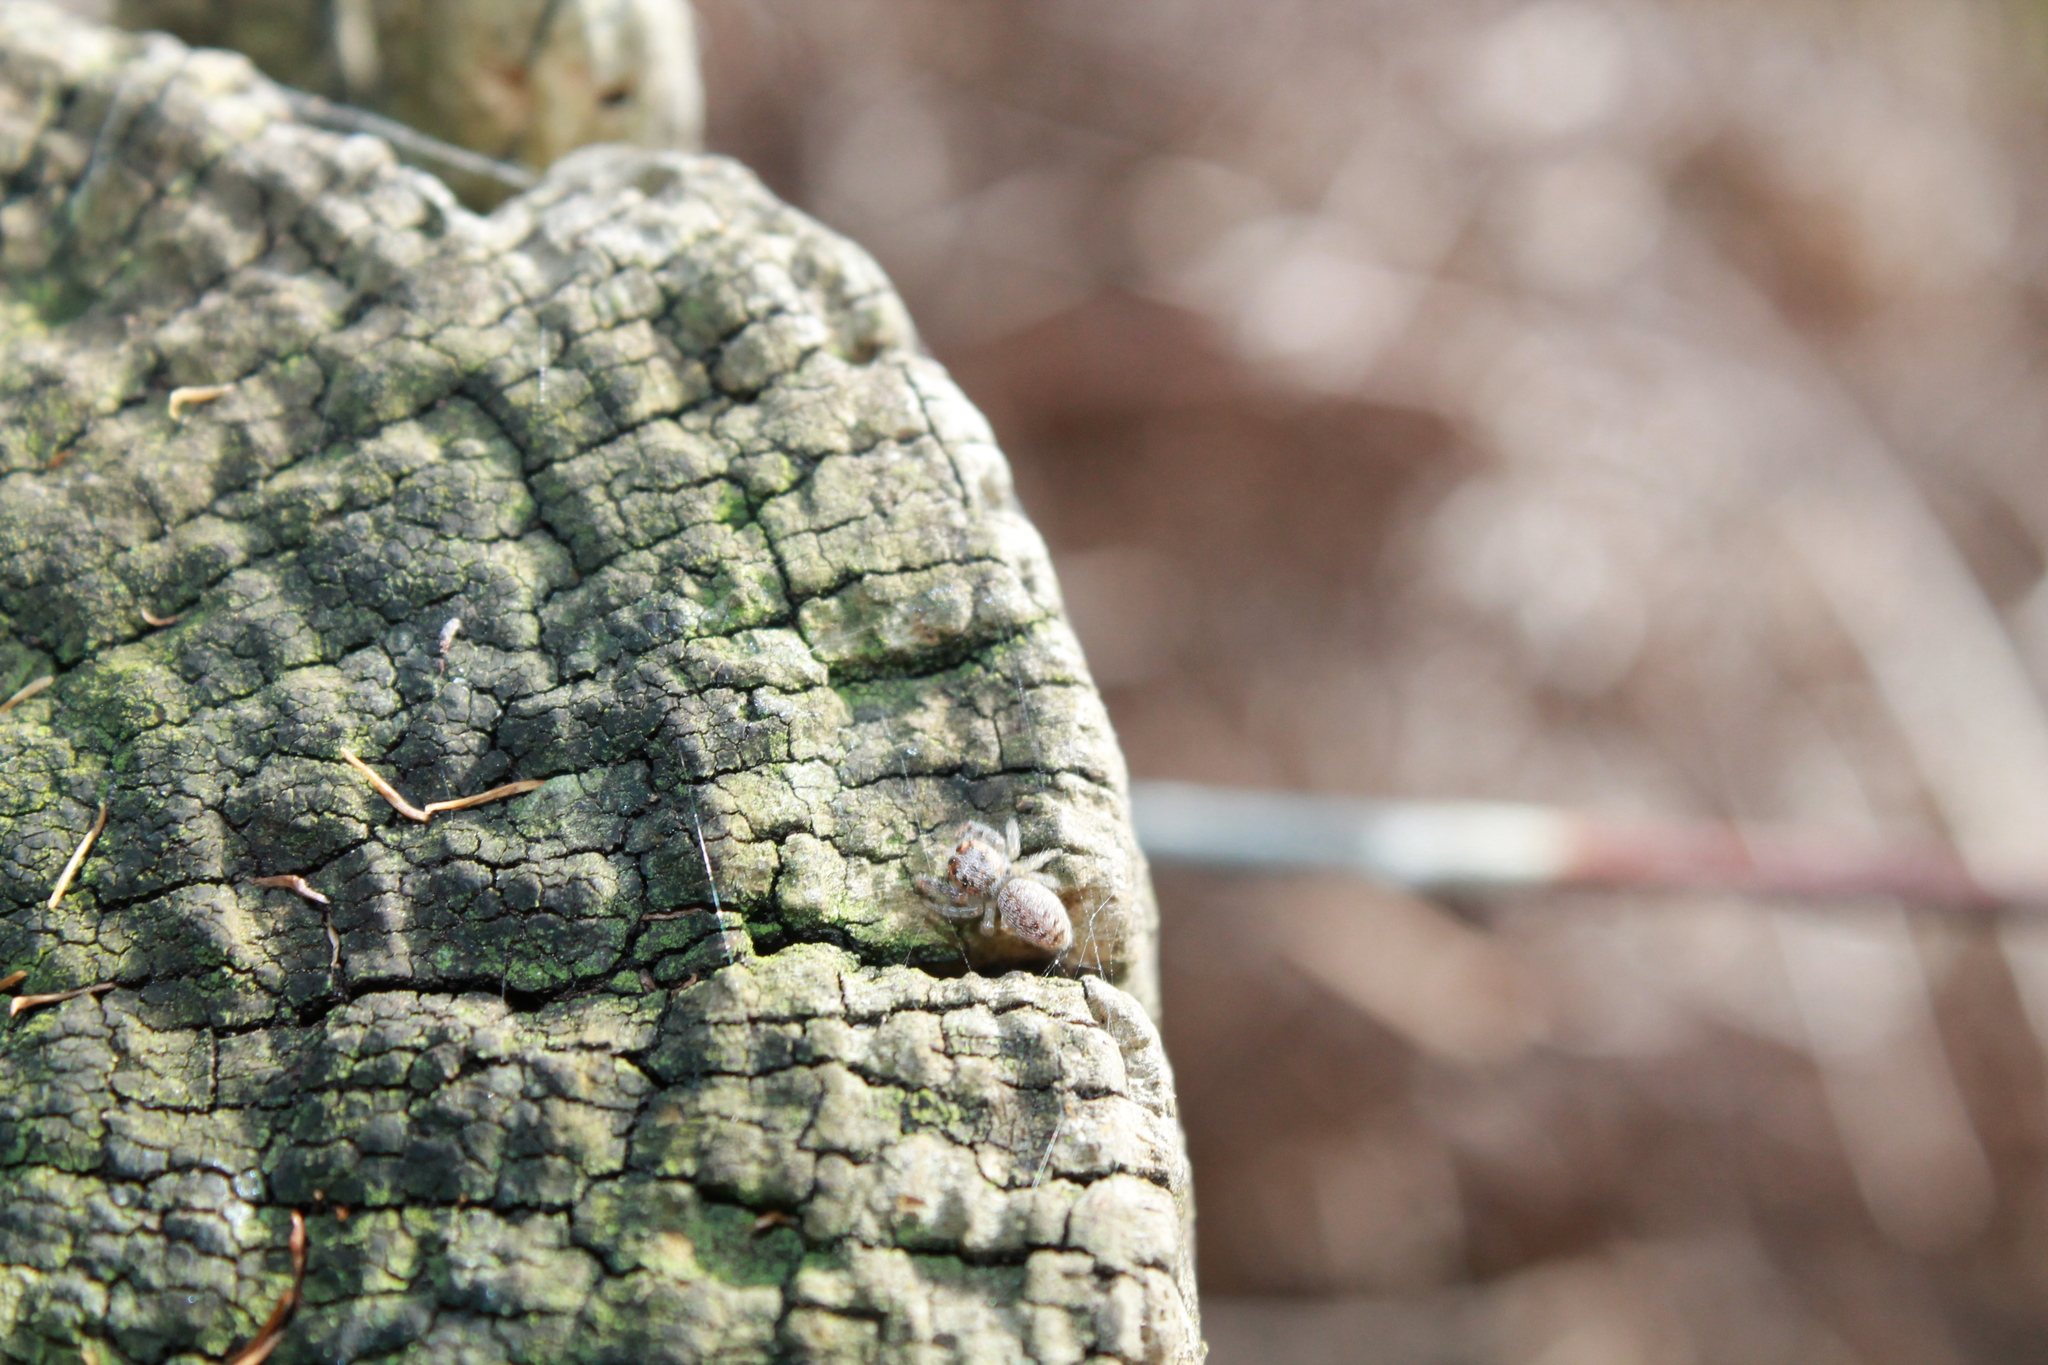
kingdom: Animalia
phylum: Arthropoda
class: Arachnida
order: Araneae
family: Salticidae
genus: Opisthoncus
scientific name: Opisthoncus polyphemus
